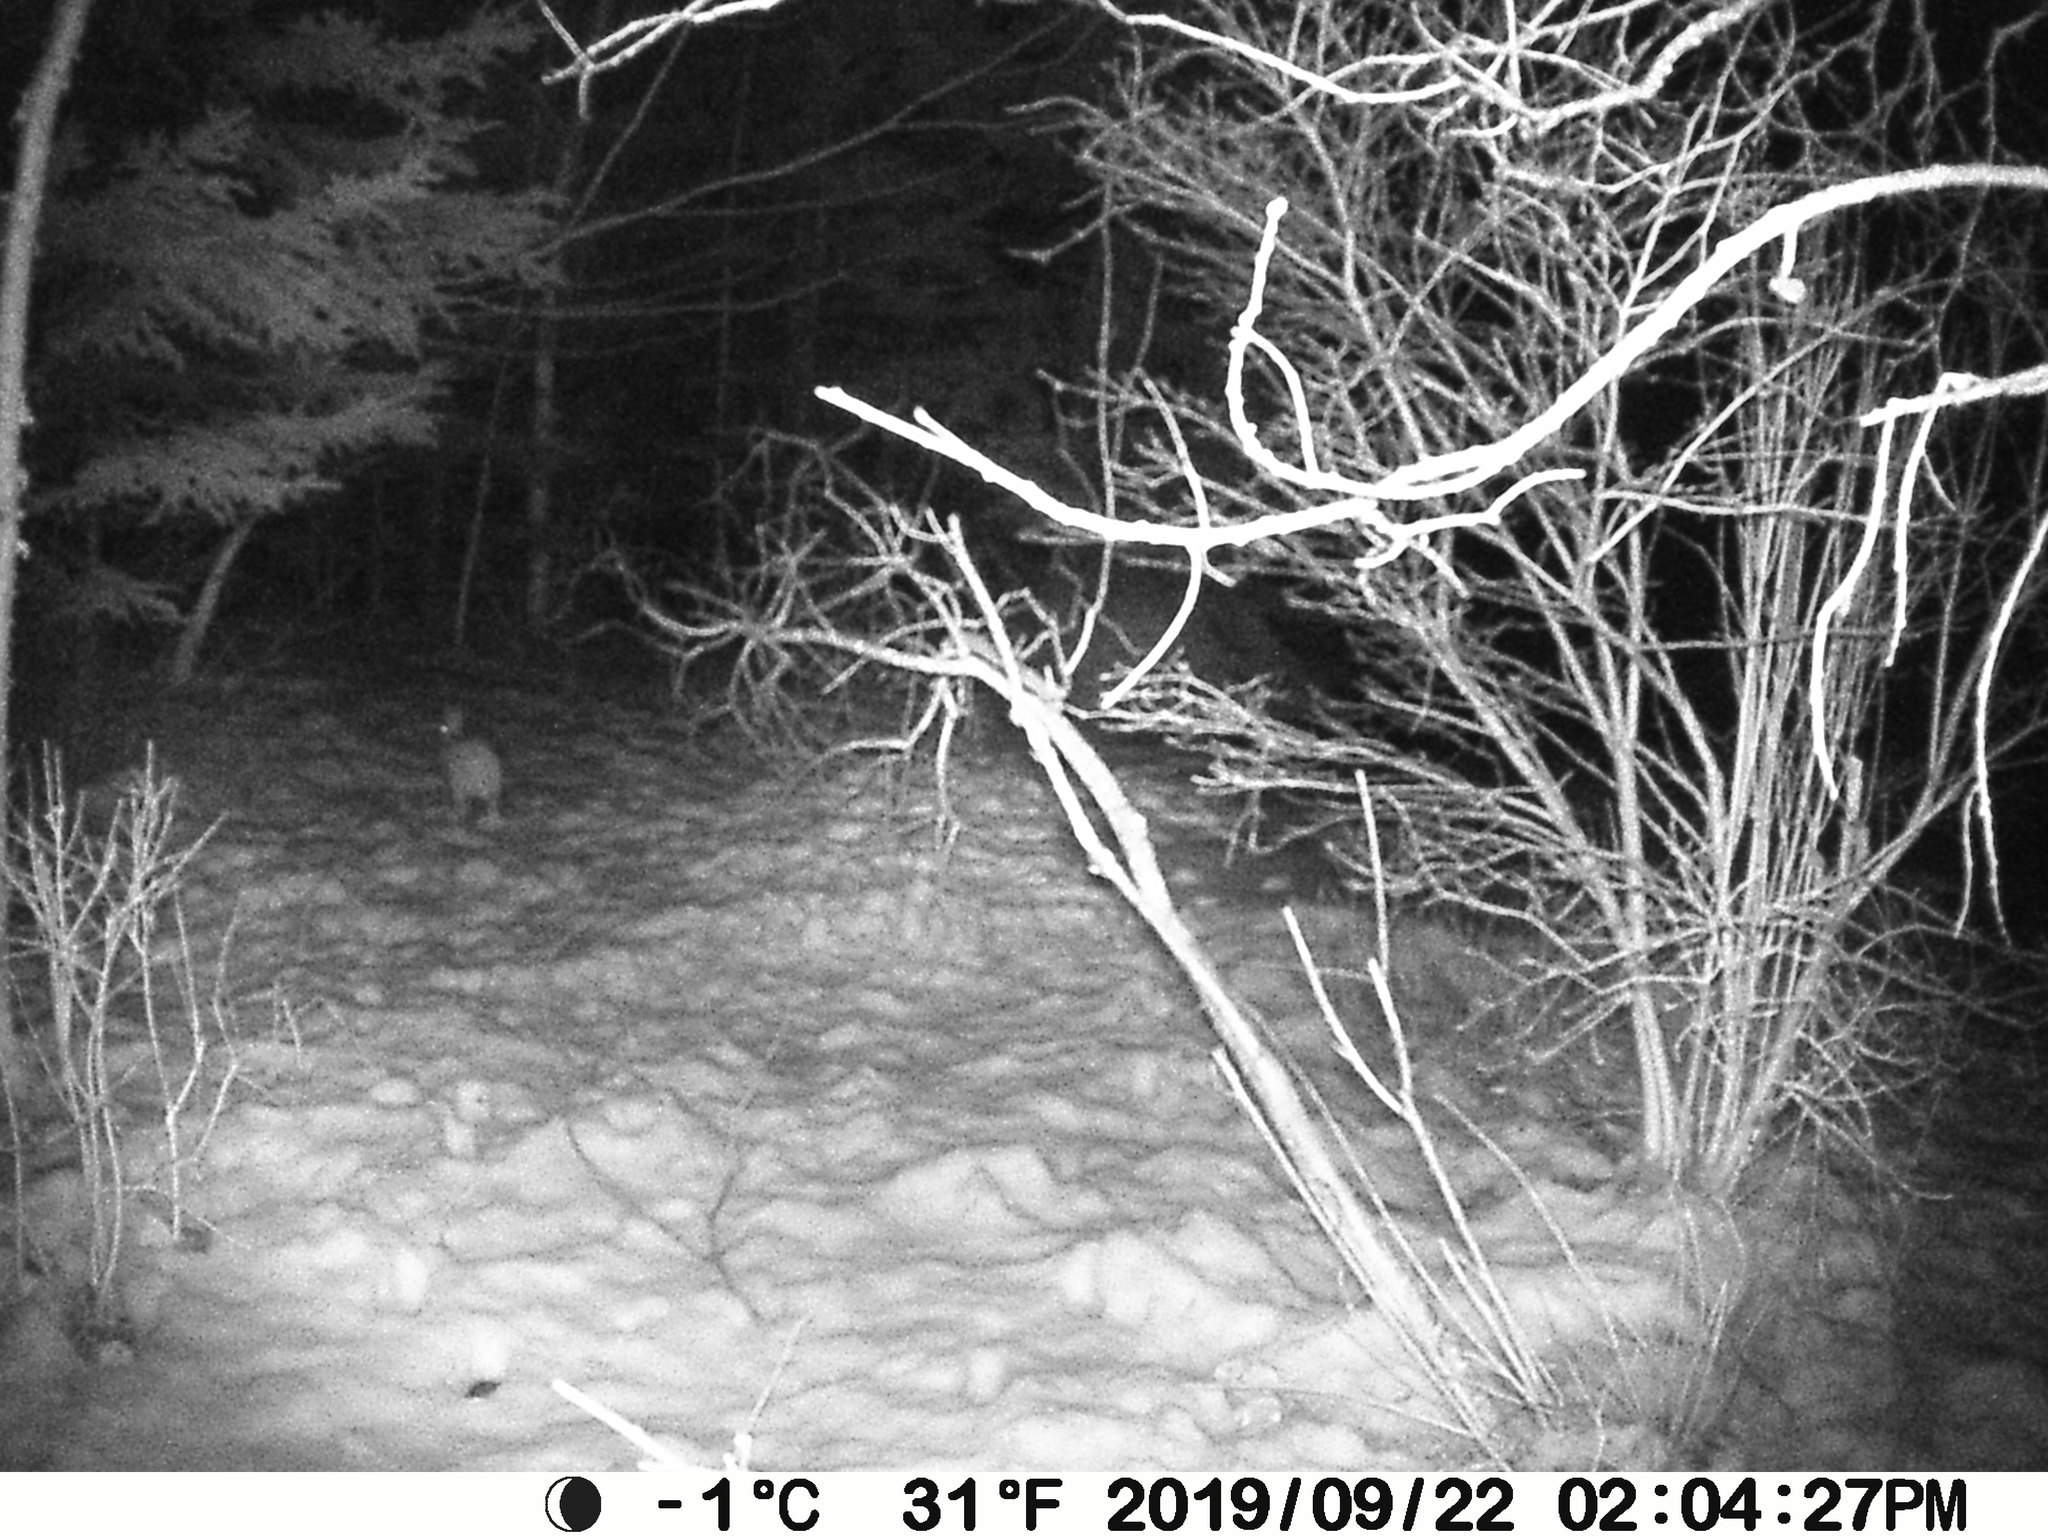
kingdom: Animalia
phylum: Chordata
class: Mammalia
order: Lagomorpha
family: Leporidae
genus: Lepus
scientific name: Lepus americanus
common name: Snowshoe hare
